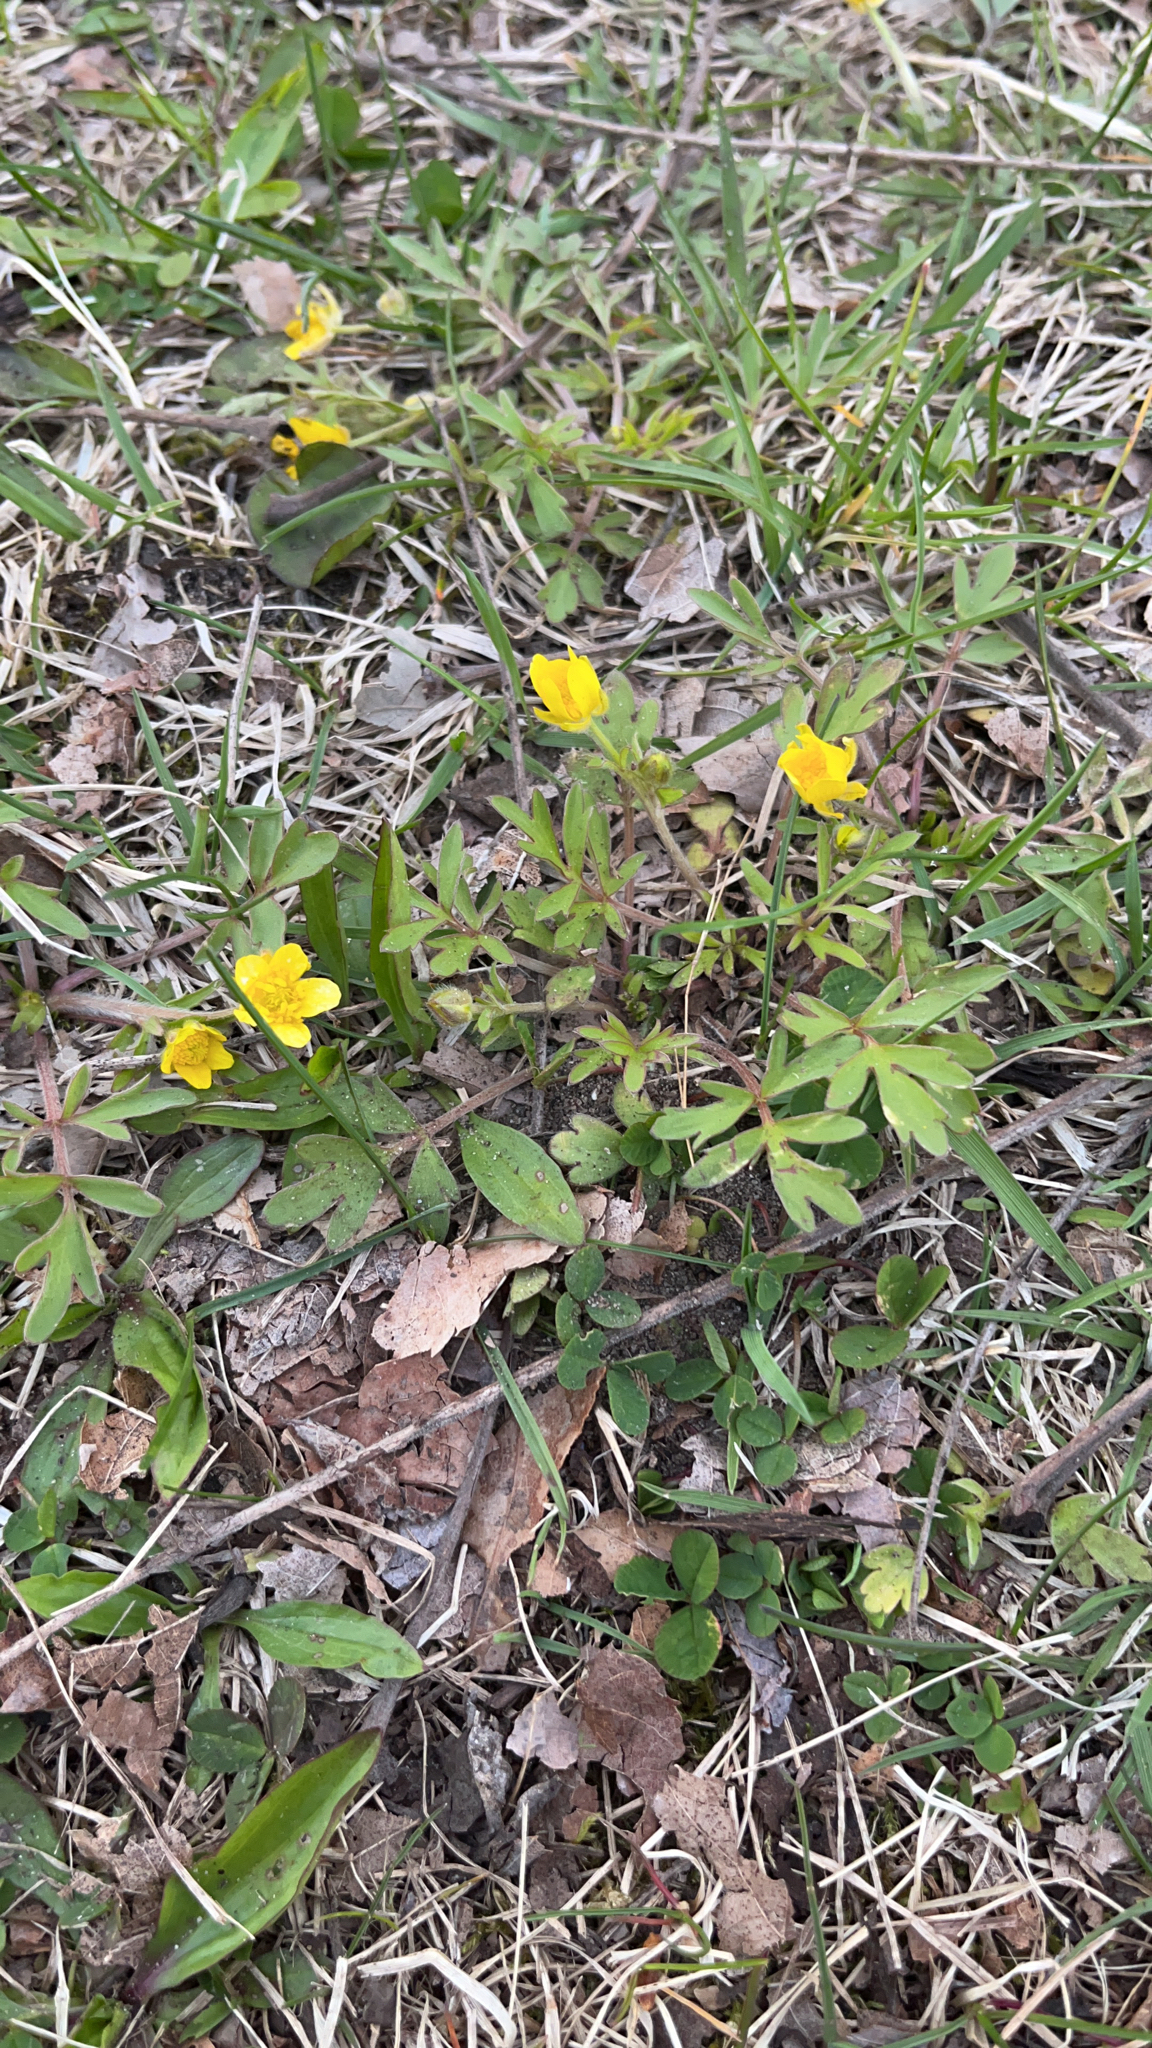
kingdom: Plantae
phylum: Tracheophyta
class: Magnoliopsida
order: Ranunculales
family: Ranunculaceae
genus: Ranunculus
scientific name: Ranunculus fascicularis
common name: Early buttercup
